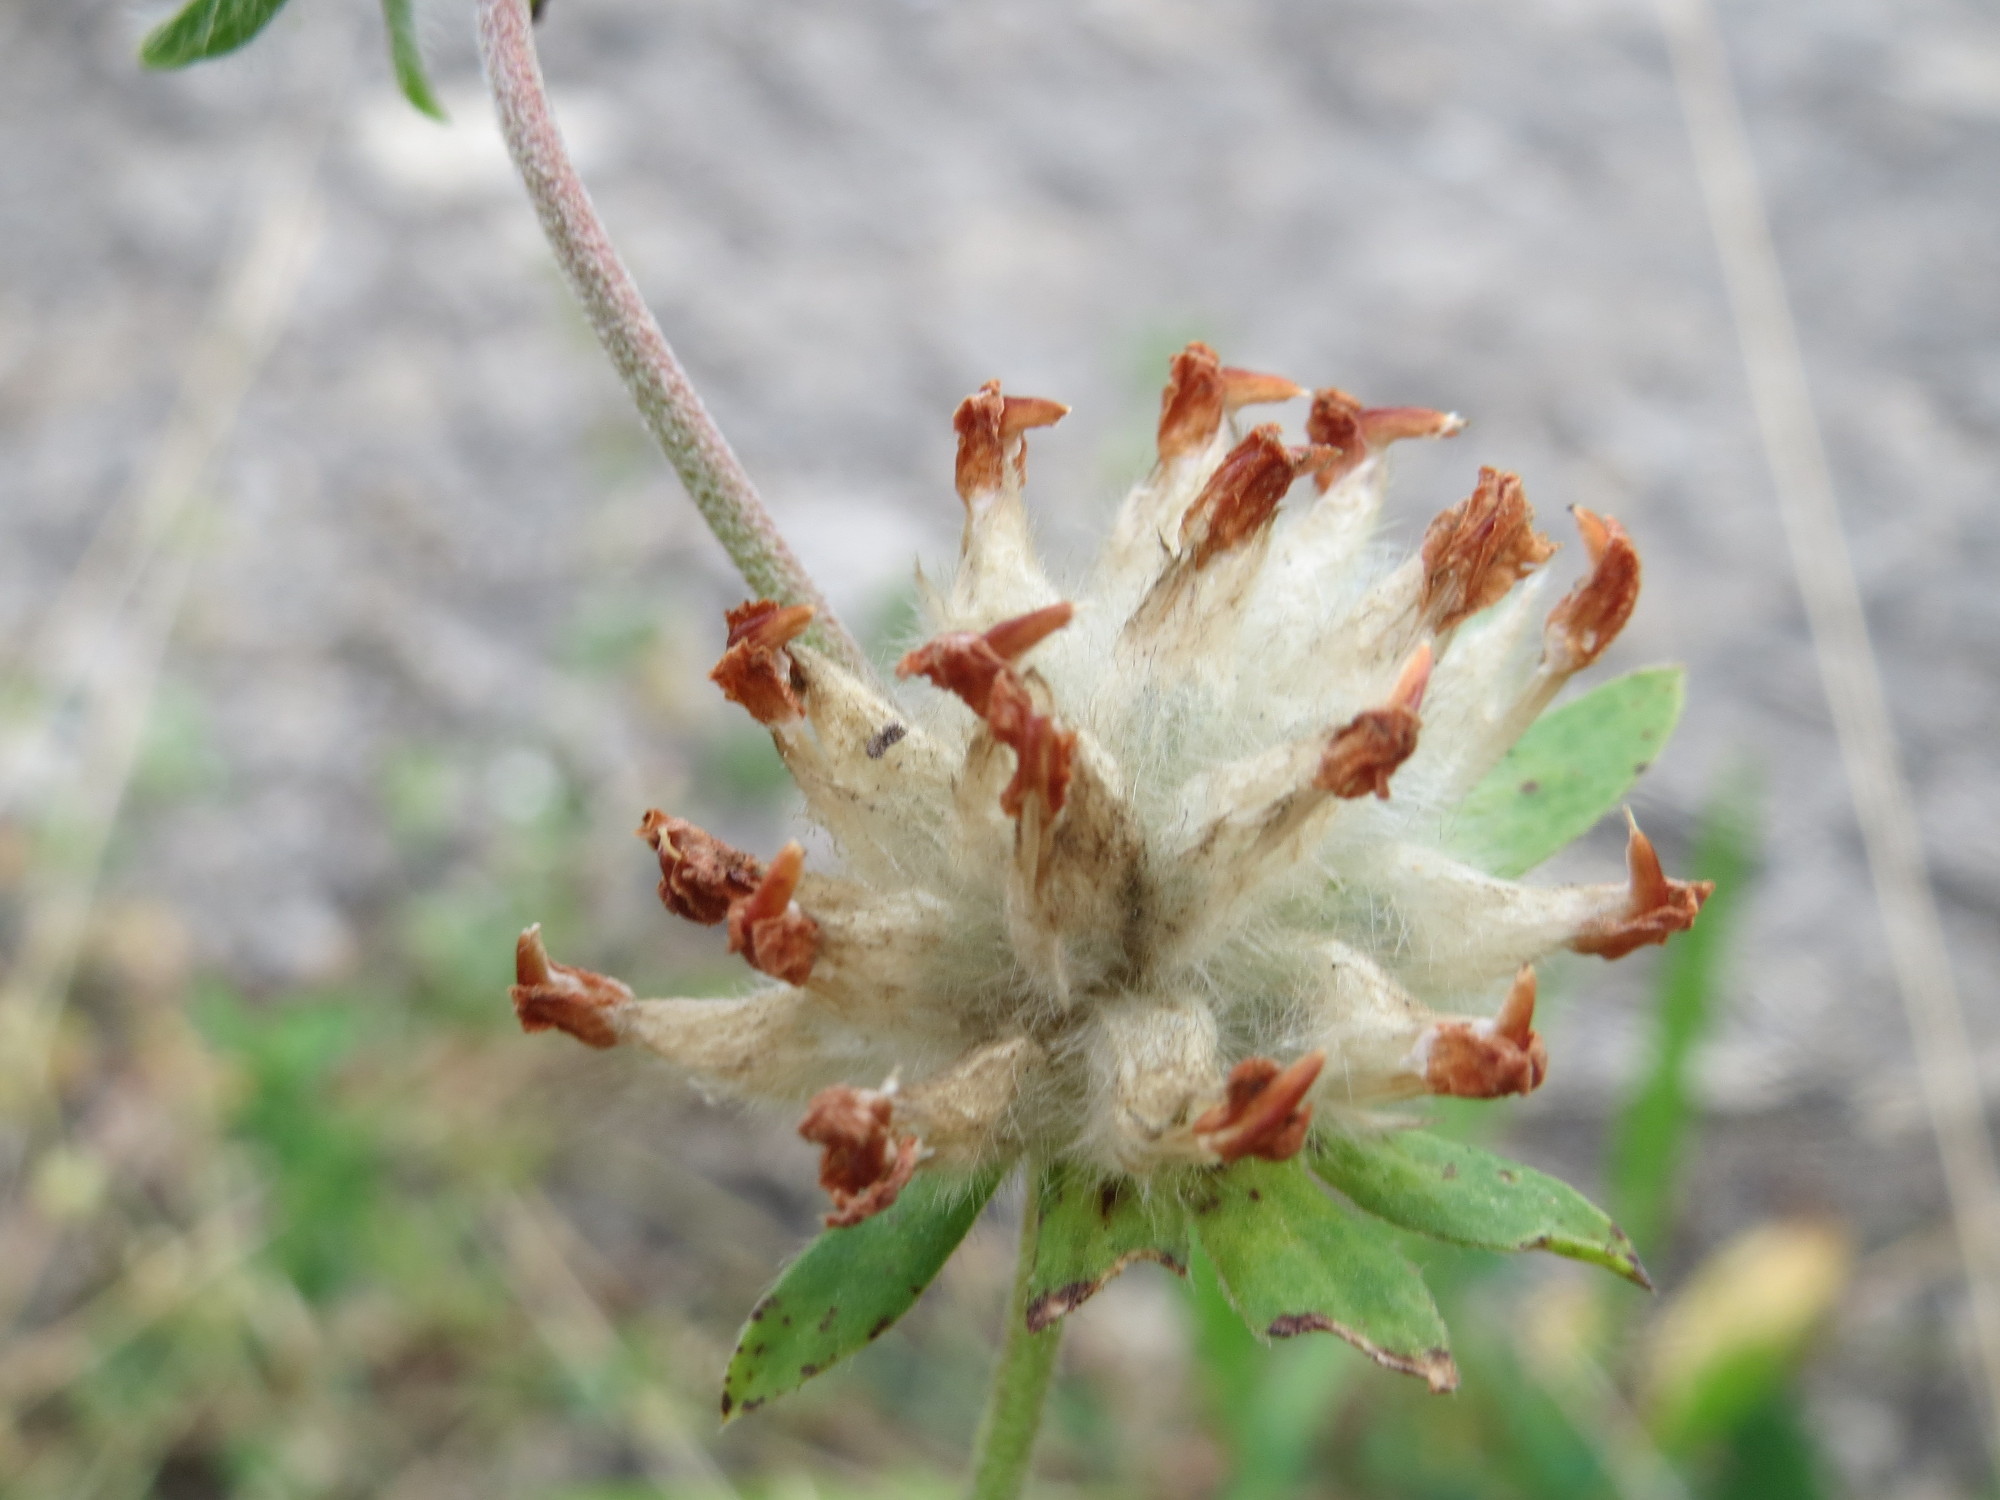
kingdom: Plantae
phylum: Tracheophyta
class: Magnoliopsida
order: Fabales
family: Fabaceae
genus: Anthyllis
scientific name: Anthyllis vulneraria
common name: Kidney vetch
